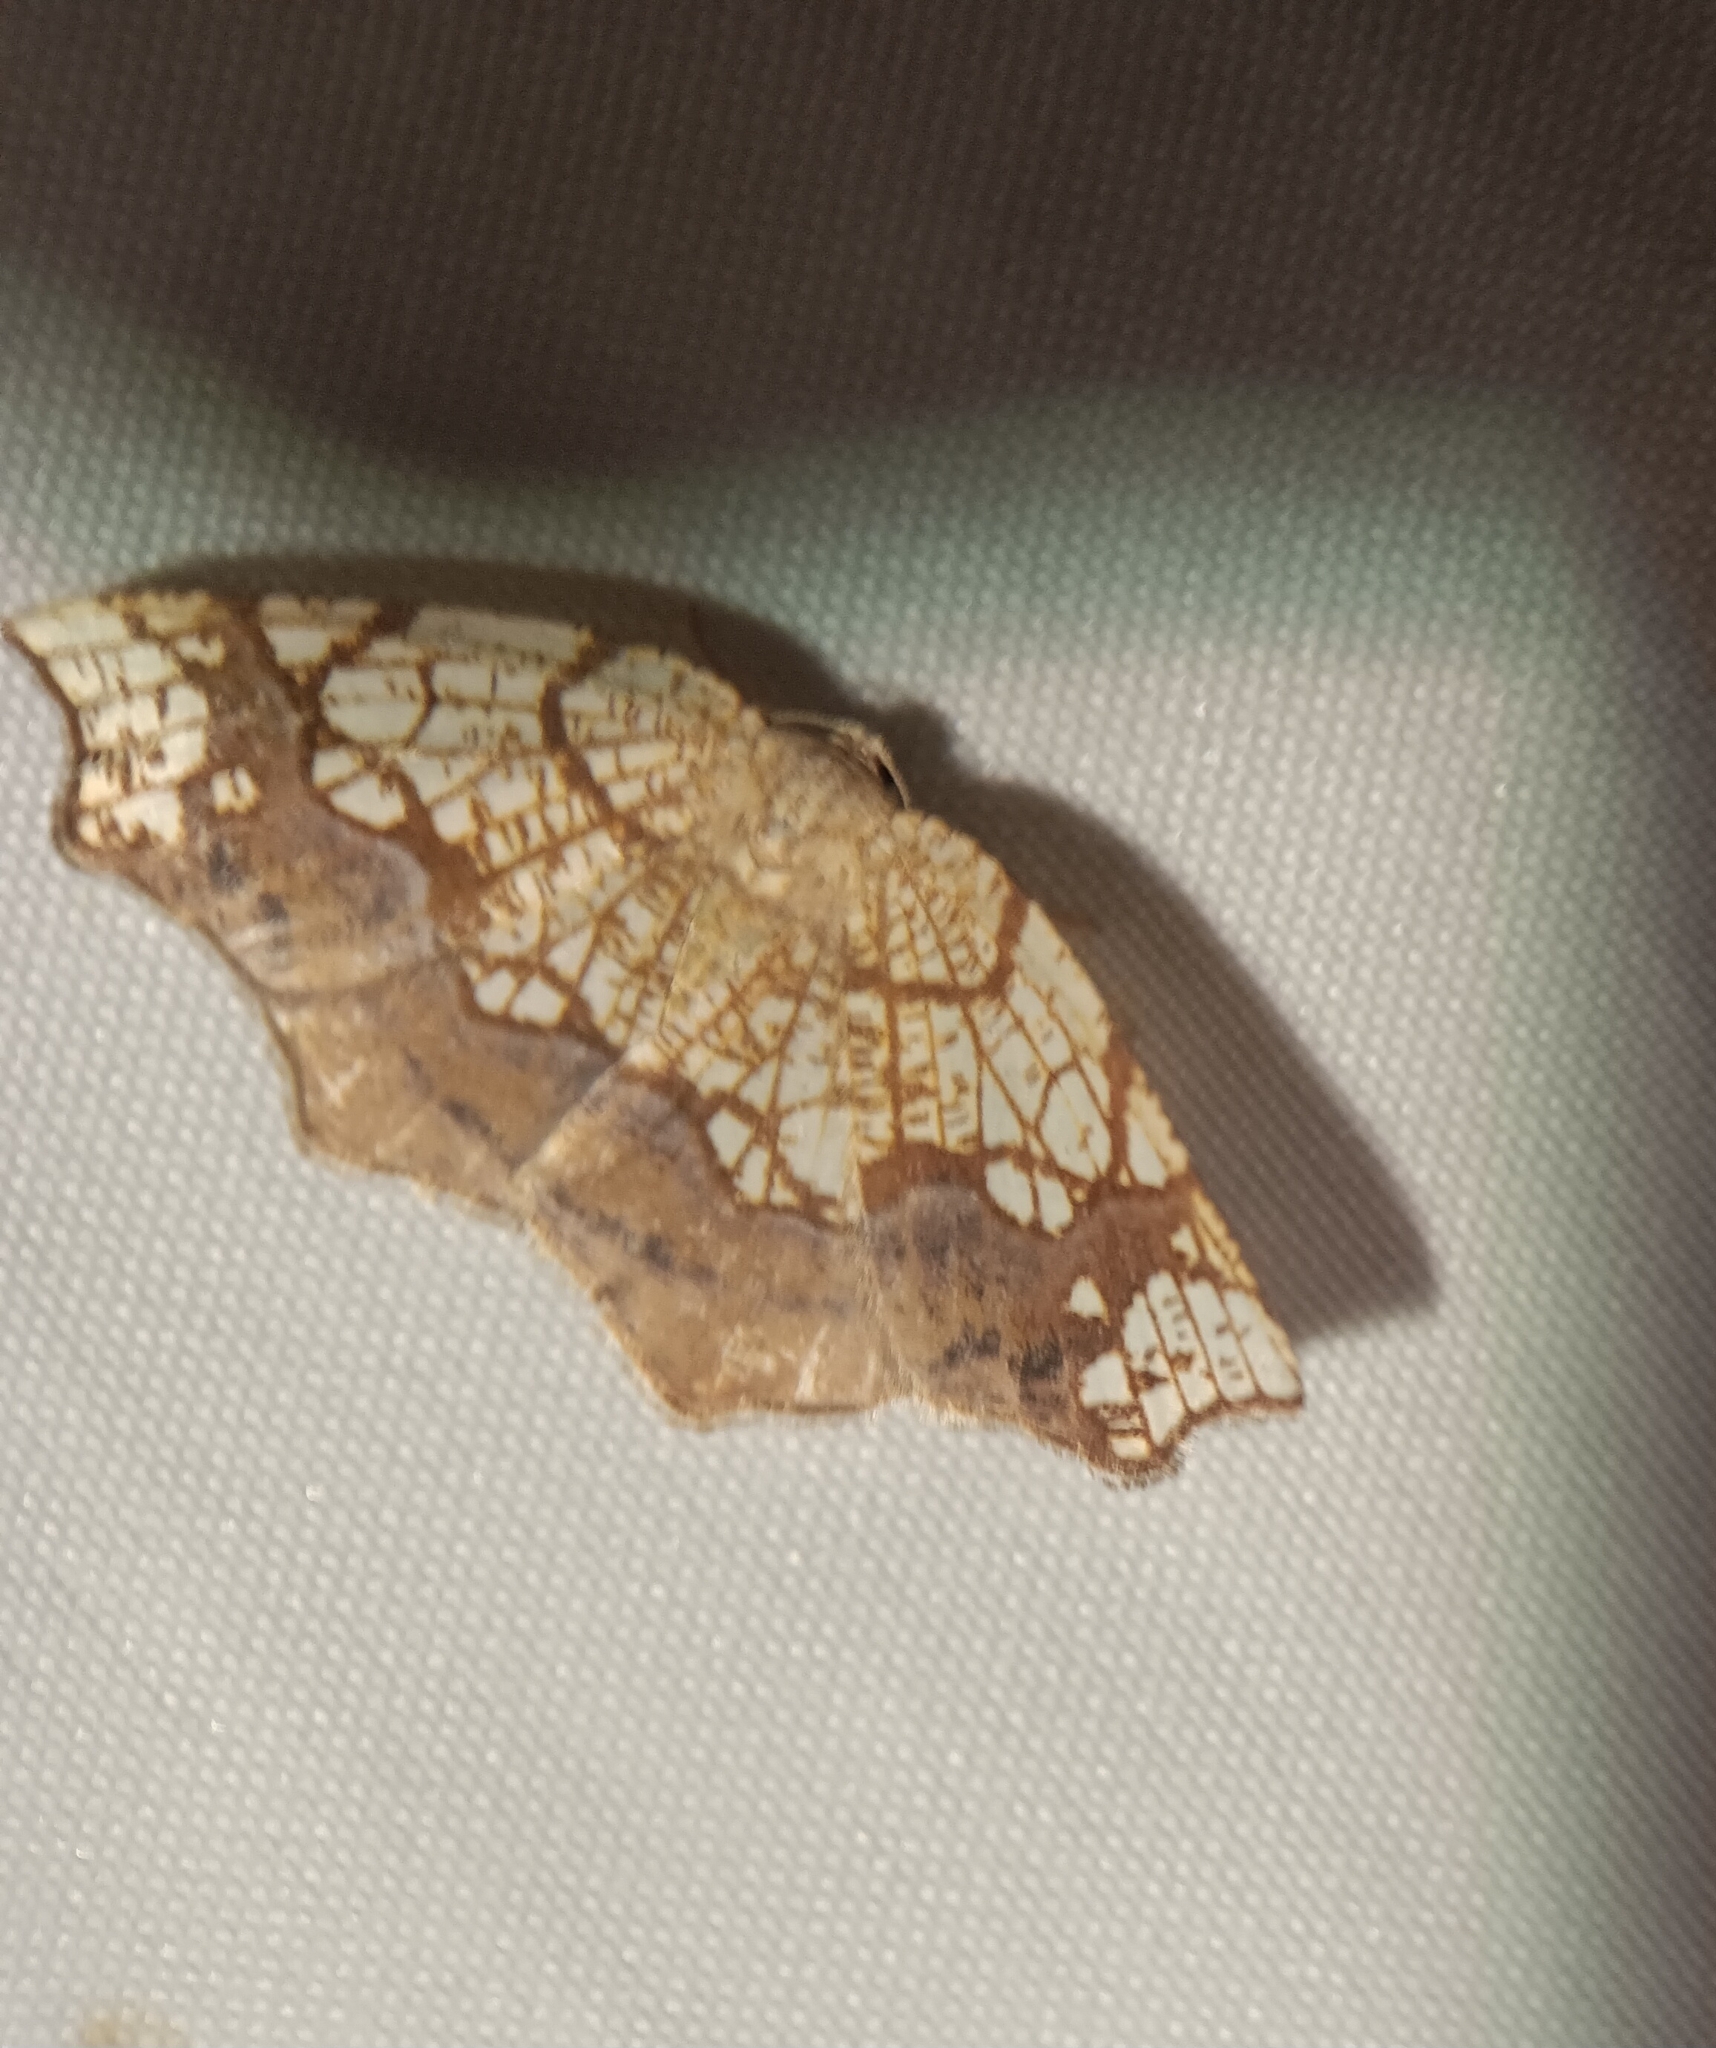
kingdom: Animalia
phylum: Arthropoda
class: Insecta
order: Lepidoptera
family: Geometridae
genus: Nematocampa
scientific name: Nematocampa resistaria
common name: Horned spanworm moth
